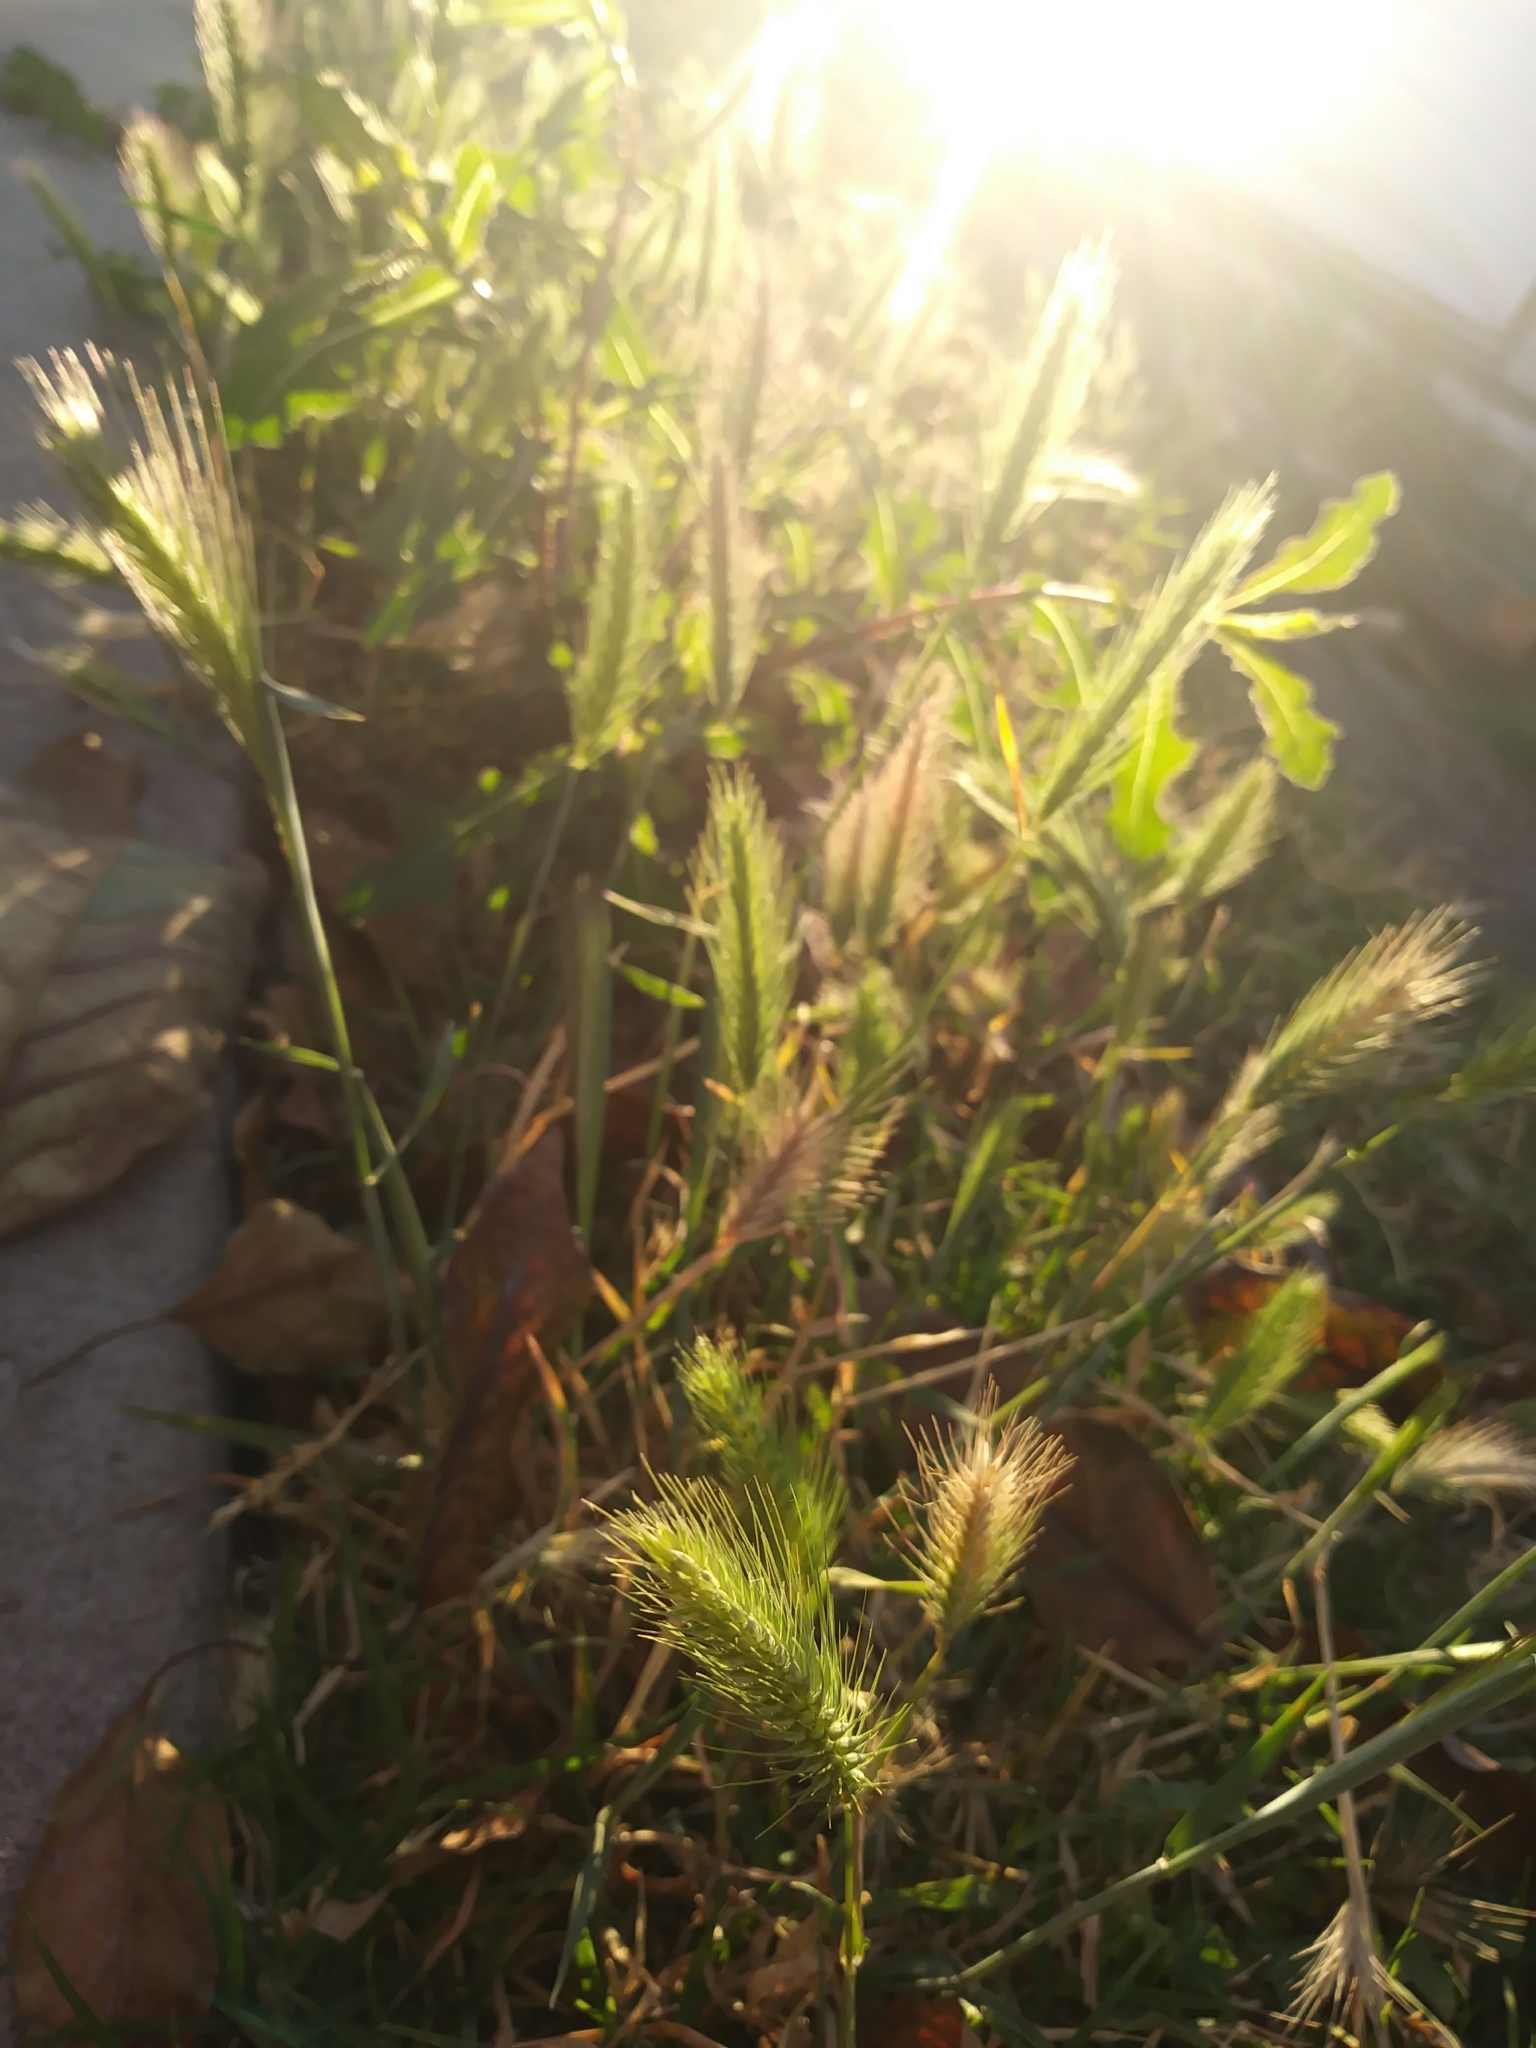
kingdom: Plantae
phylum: Tracheophyta
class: Liliopsida
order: Poales
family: Poaceae
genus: Hordeum
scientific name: Hordeum murinum
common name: Wall barley
